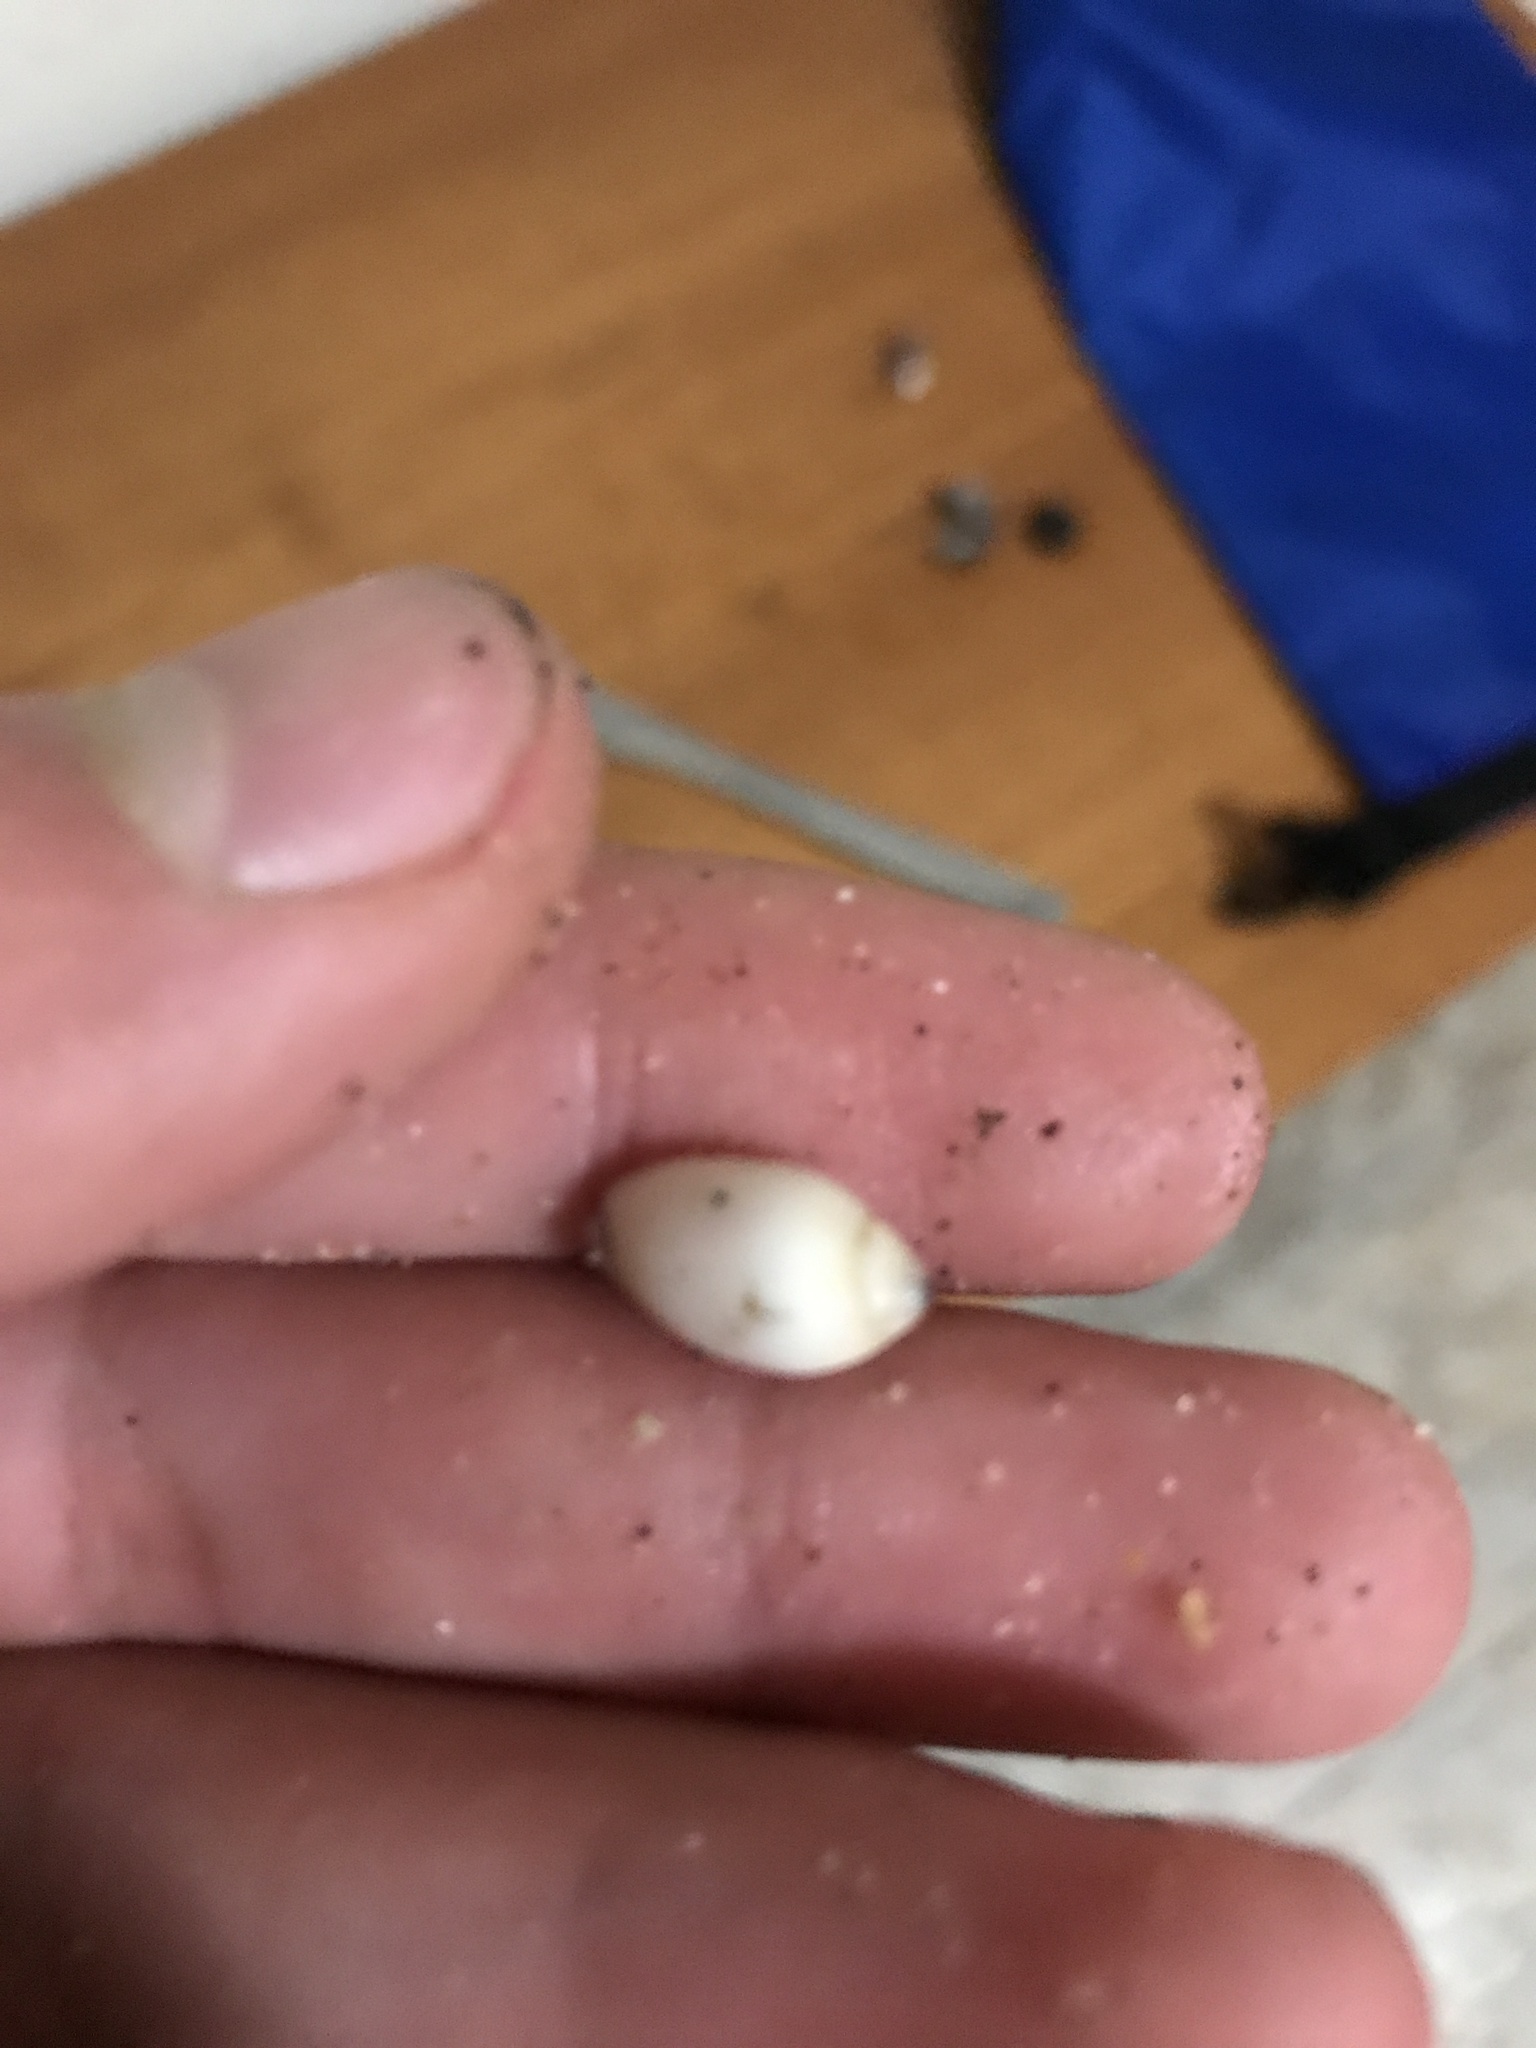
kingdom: Animalia
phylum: Mollusca
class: Gastropoda
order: Neogastropoda
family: Olividae
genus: Callianax
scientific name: Callianax biplicata
